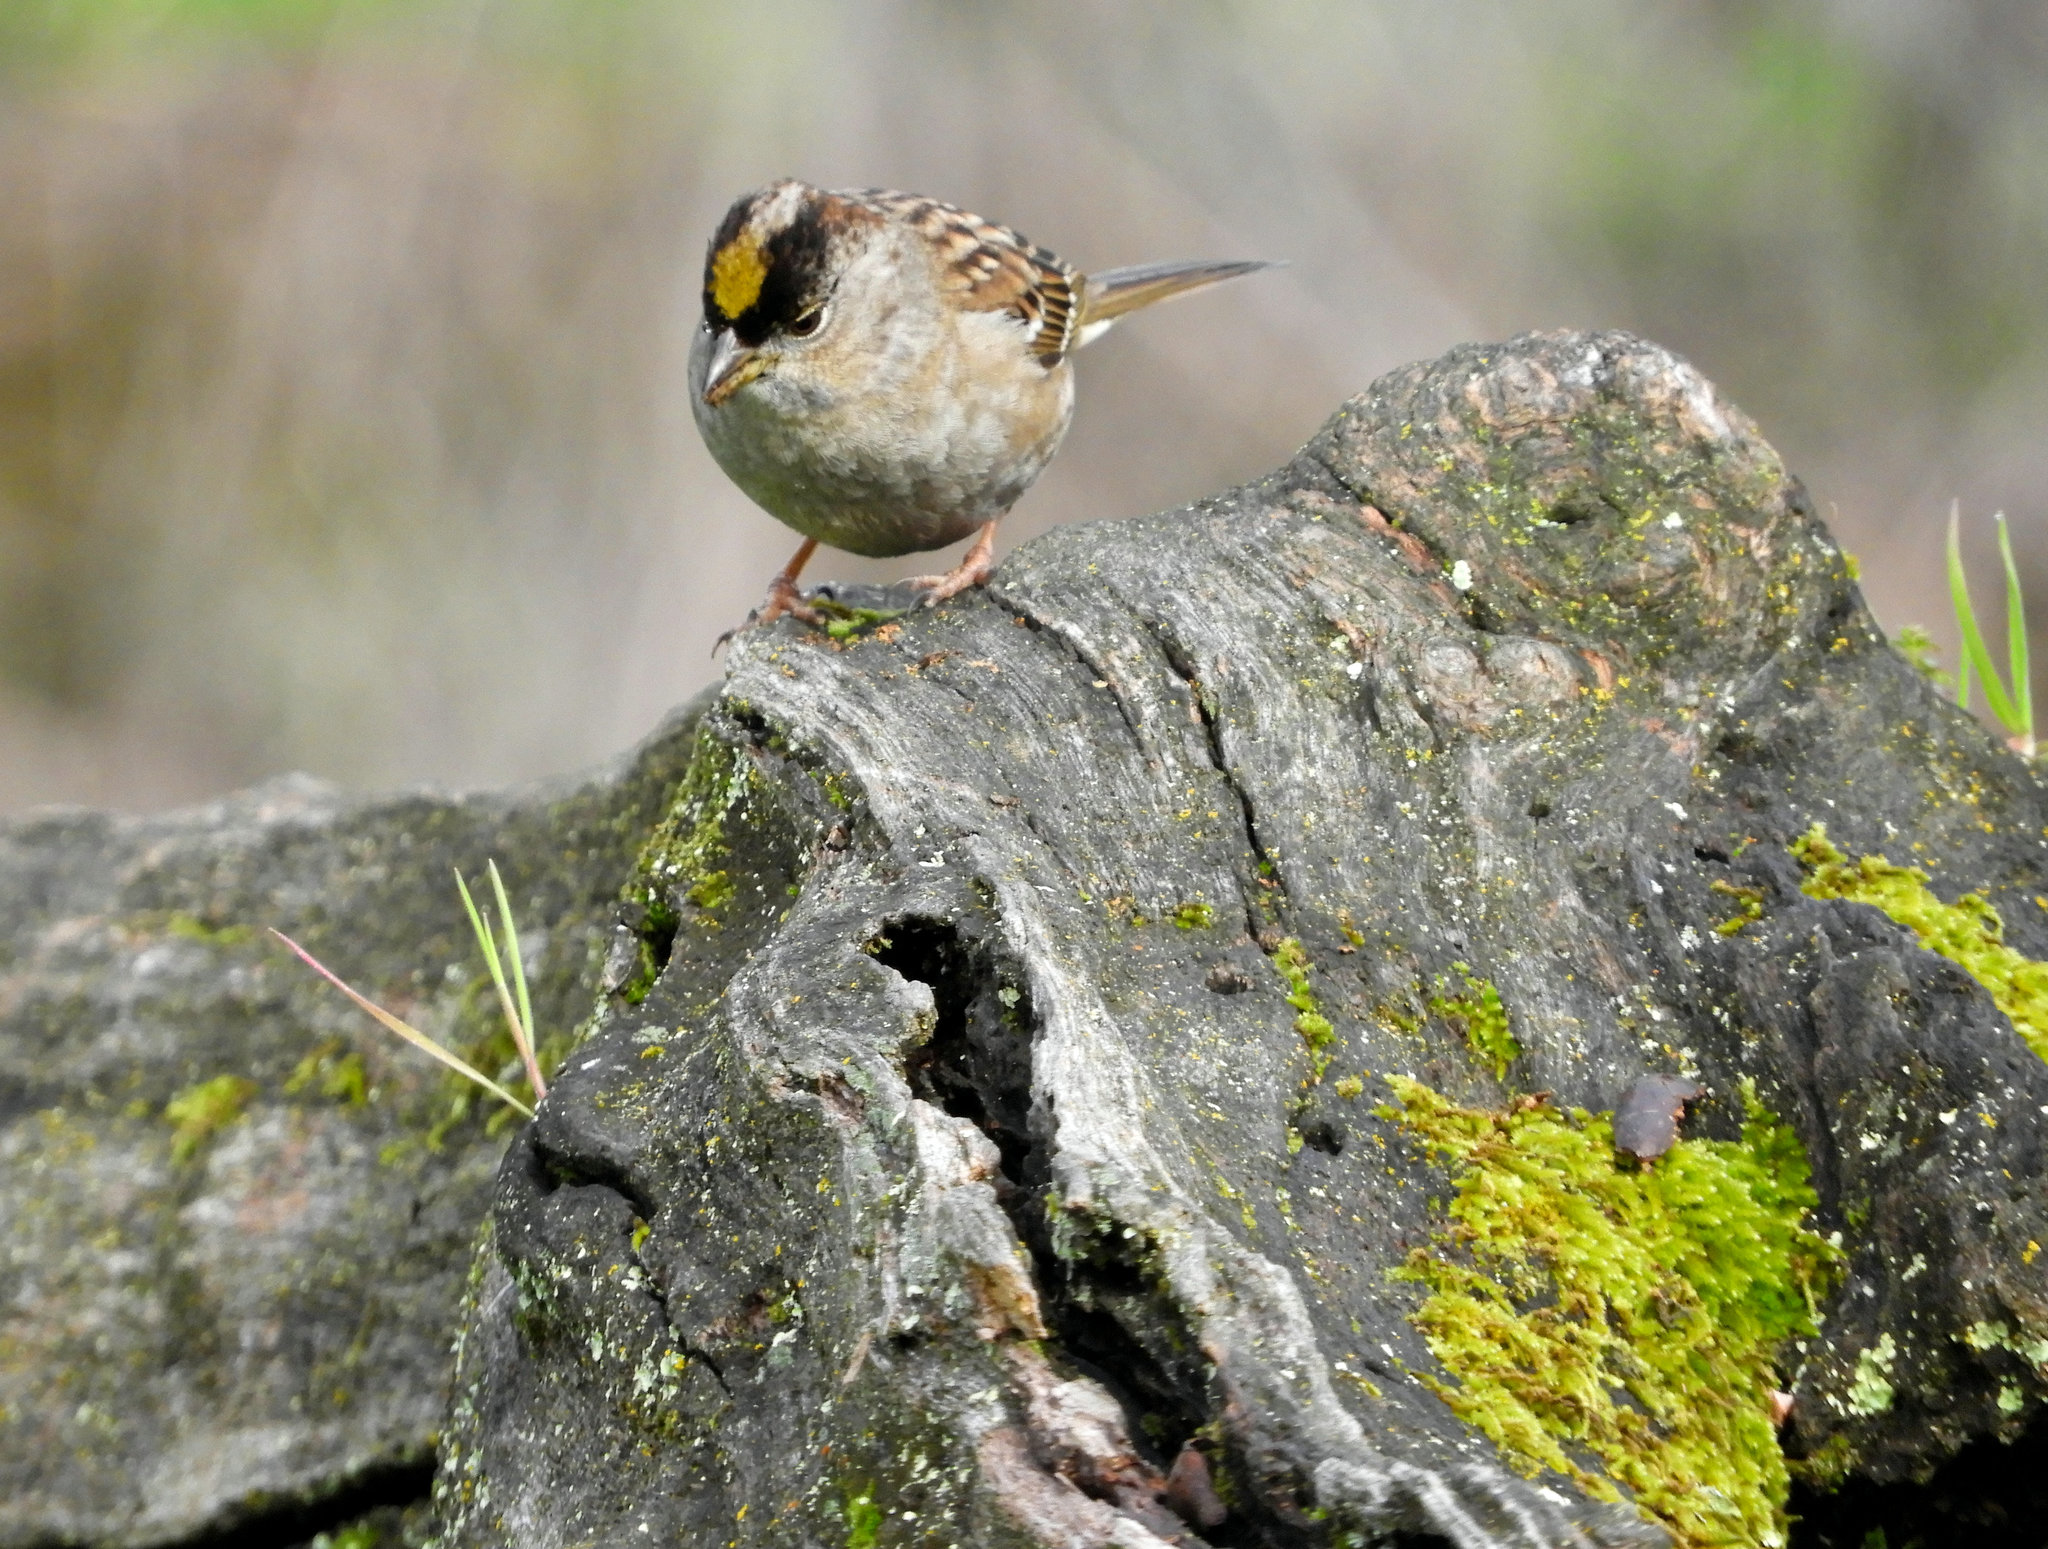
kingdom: Animalia
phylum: Chordata
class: Aves
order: Passeriformes
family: Passerellidae
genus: Zonotrichia
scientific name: Zonotrichia atricapilla
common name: Golden-crowned sparrow
